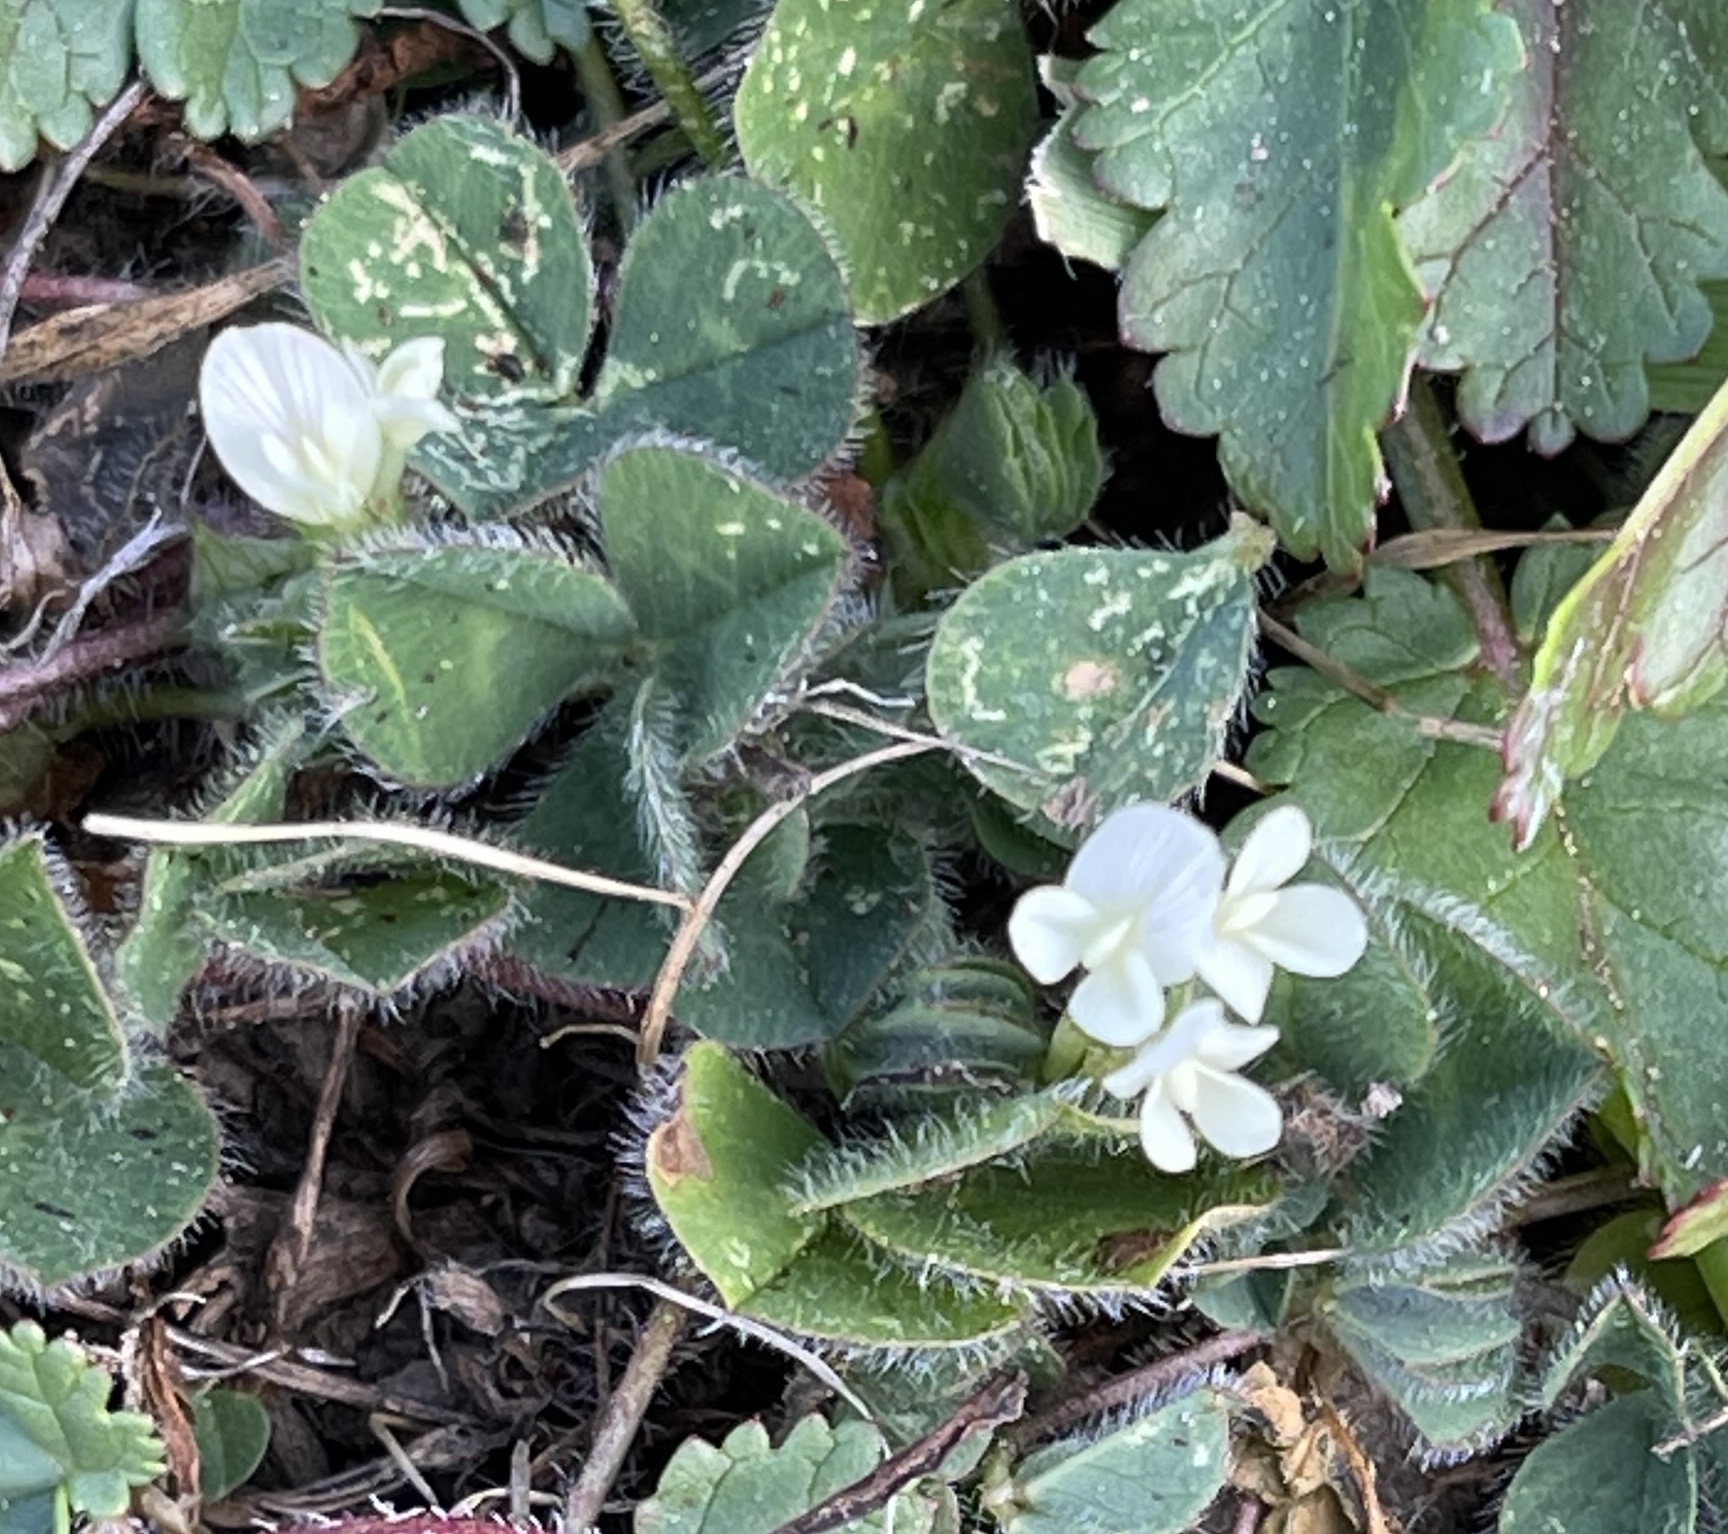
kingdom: Plantae
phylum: Tracheophyta
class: Magnoliopsida
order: Fabales
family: Fabaceae
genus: Trifolium
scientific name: Trifolium subterraneum
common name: Subterranean clover
